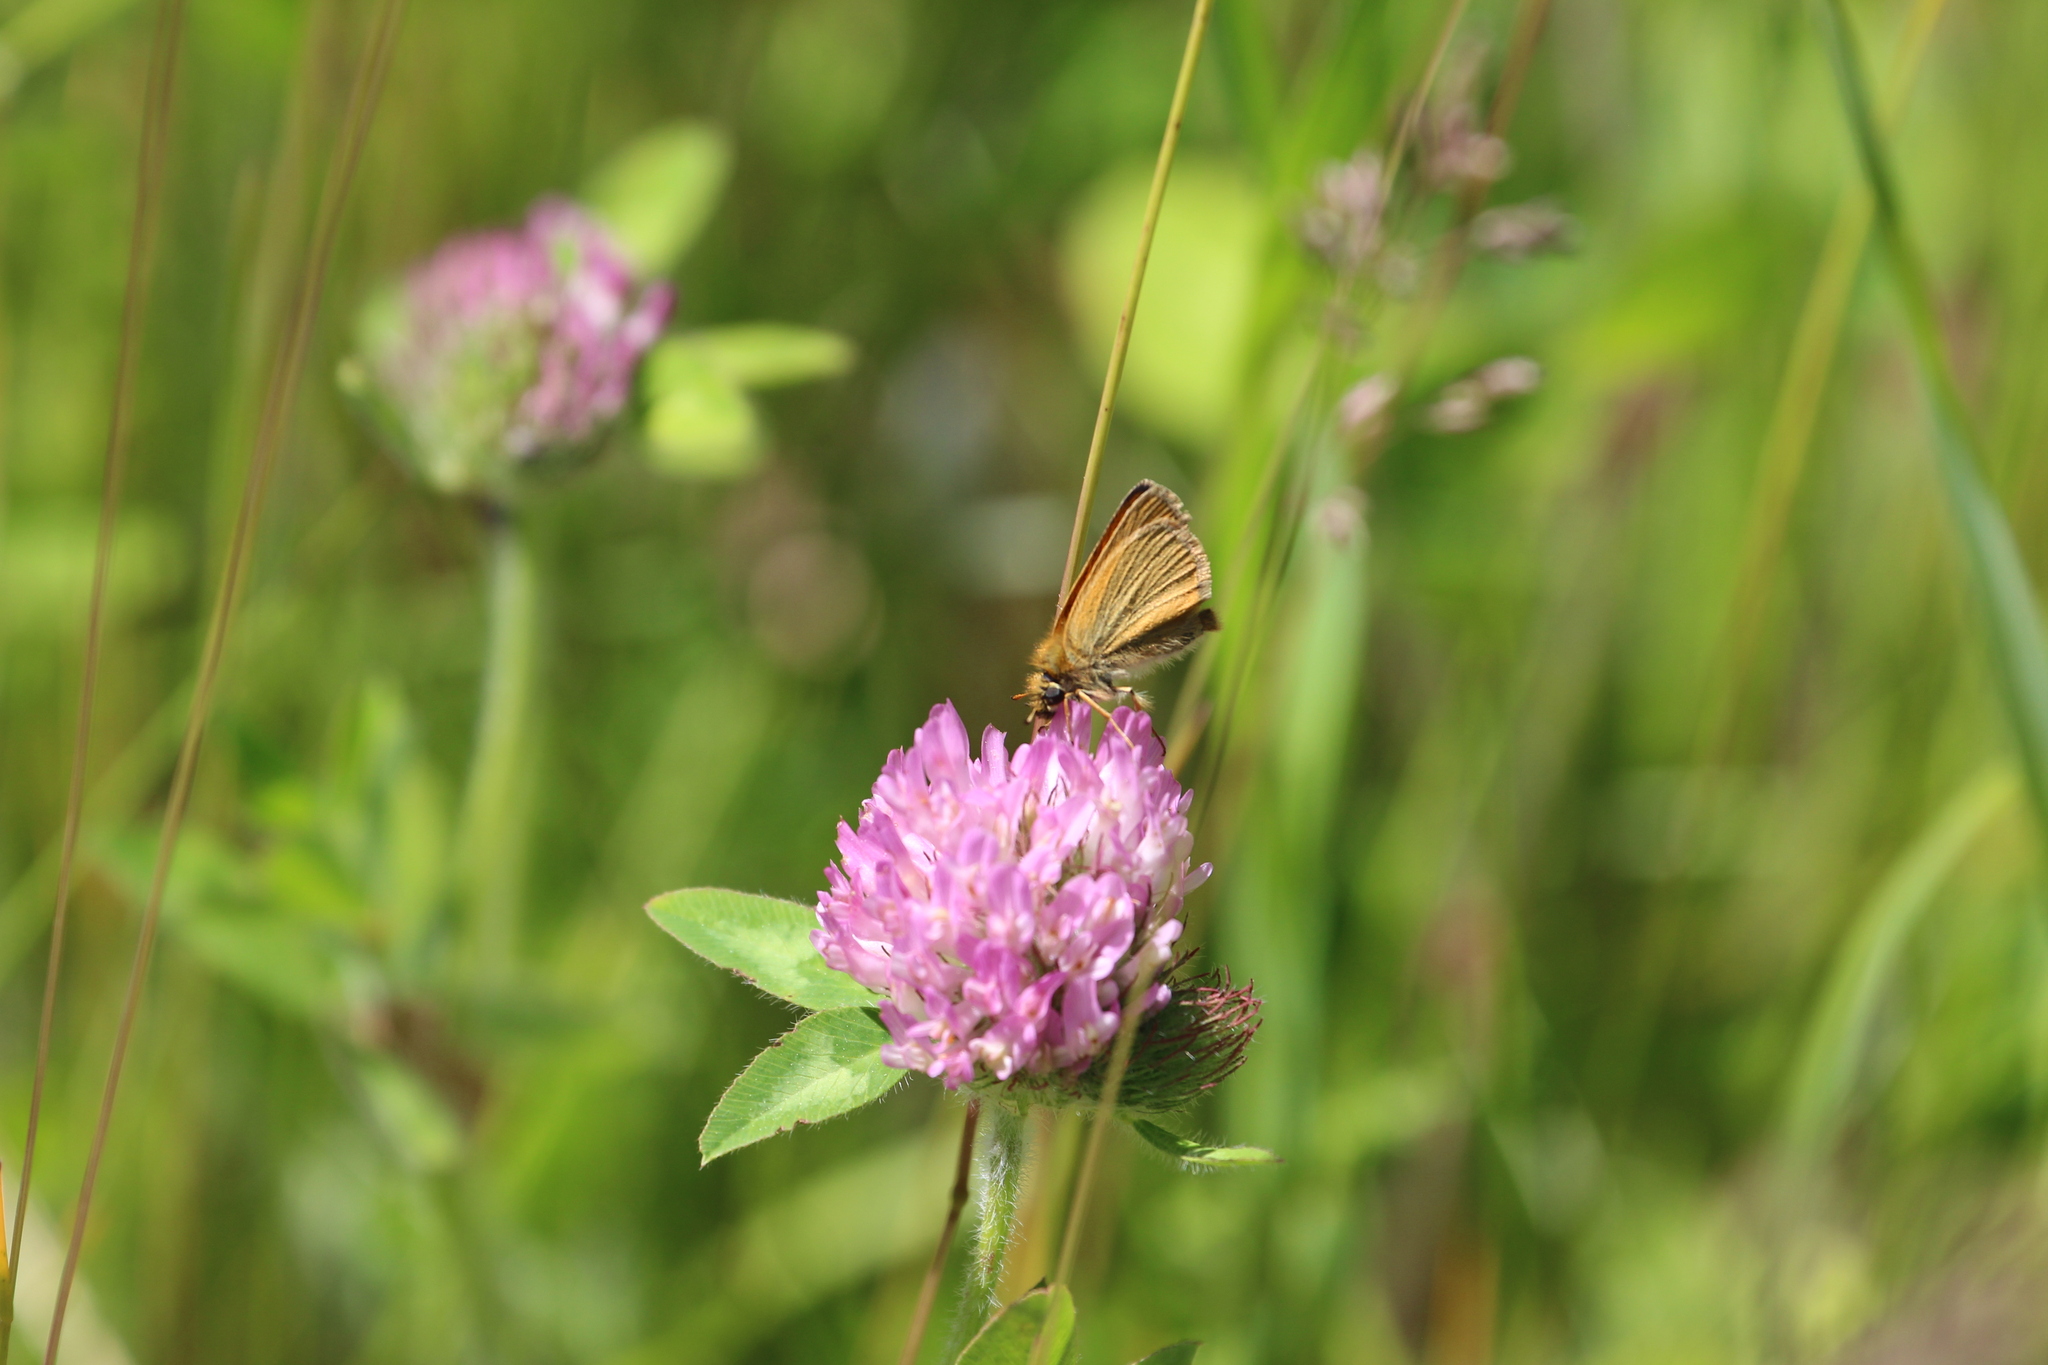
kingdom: Plantae
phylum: Tracheophyta
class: Magnoliopsida
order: Fabales
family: Fabaceae
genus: Trifolium
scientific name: Trifolium pratense
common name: Red clover
